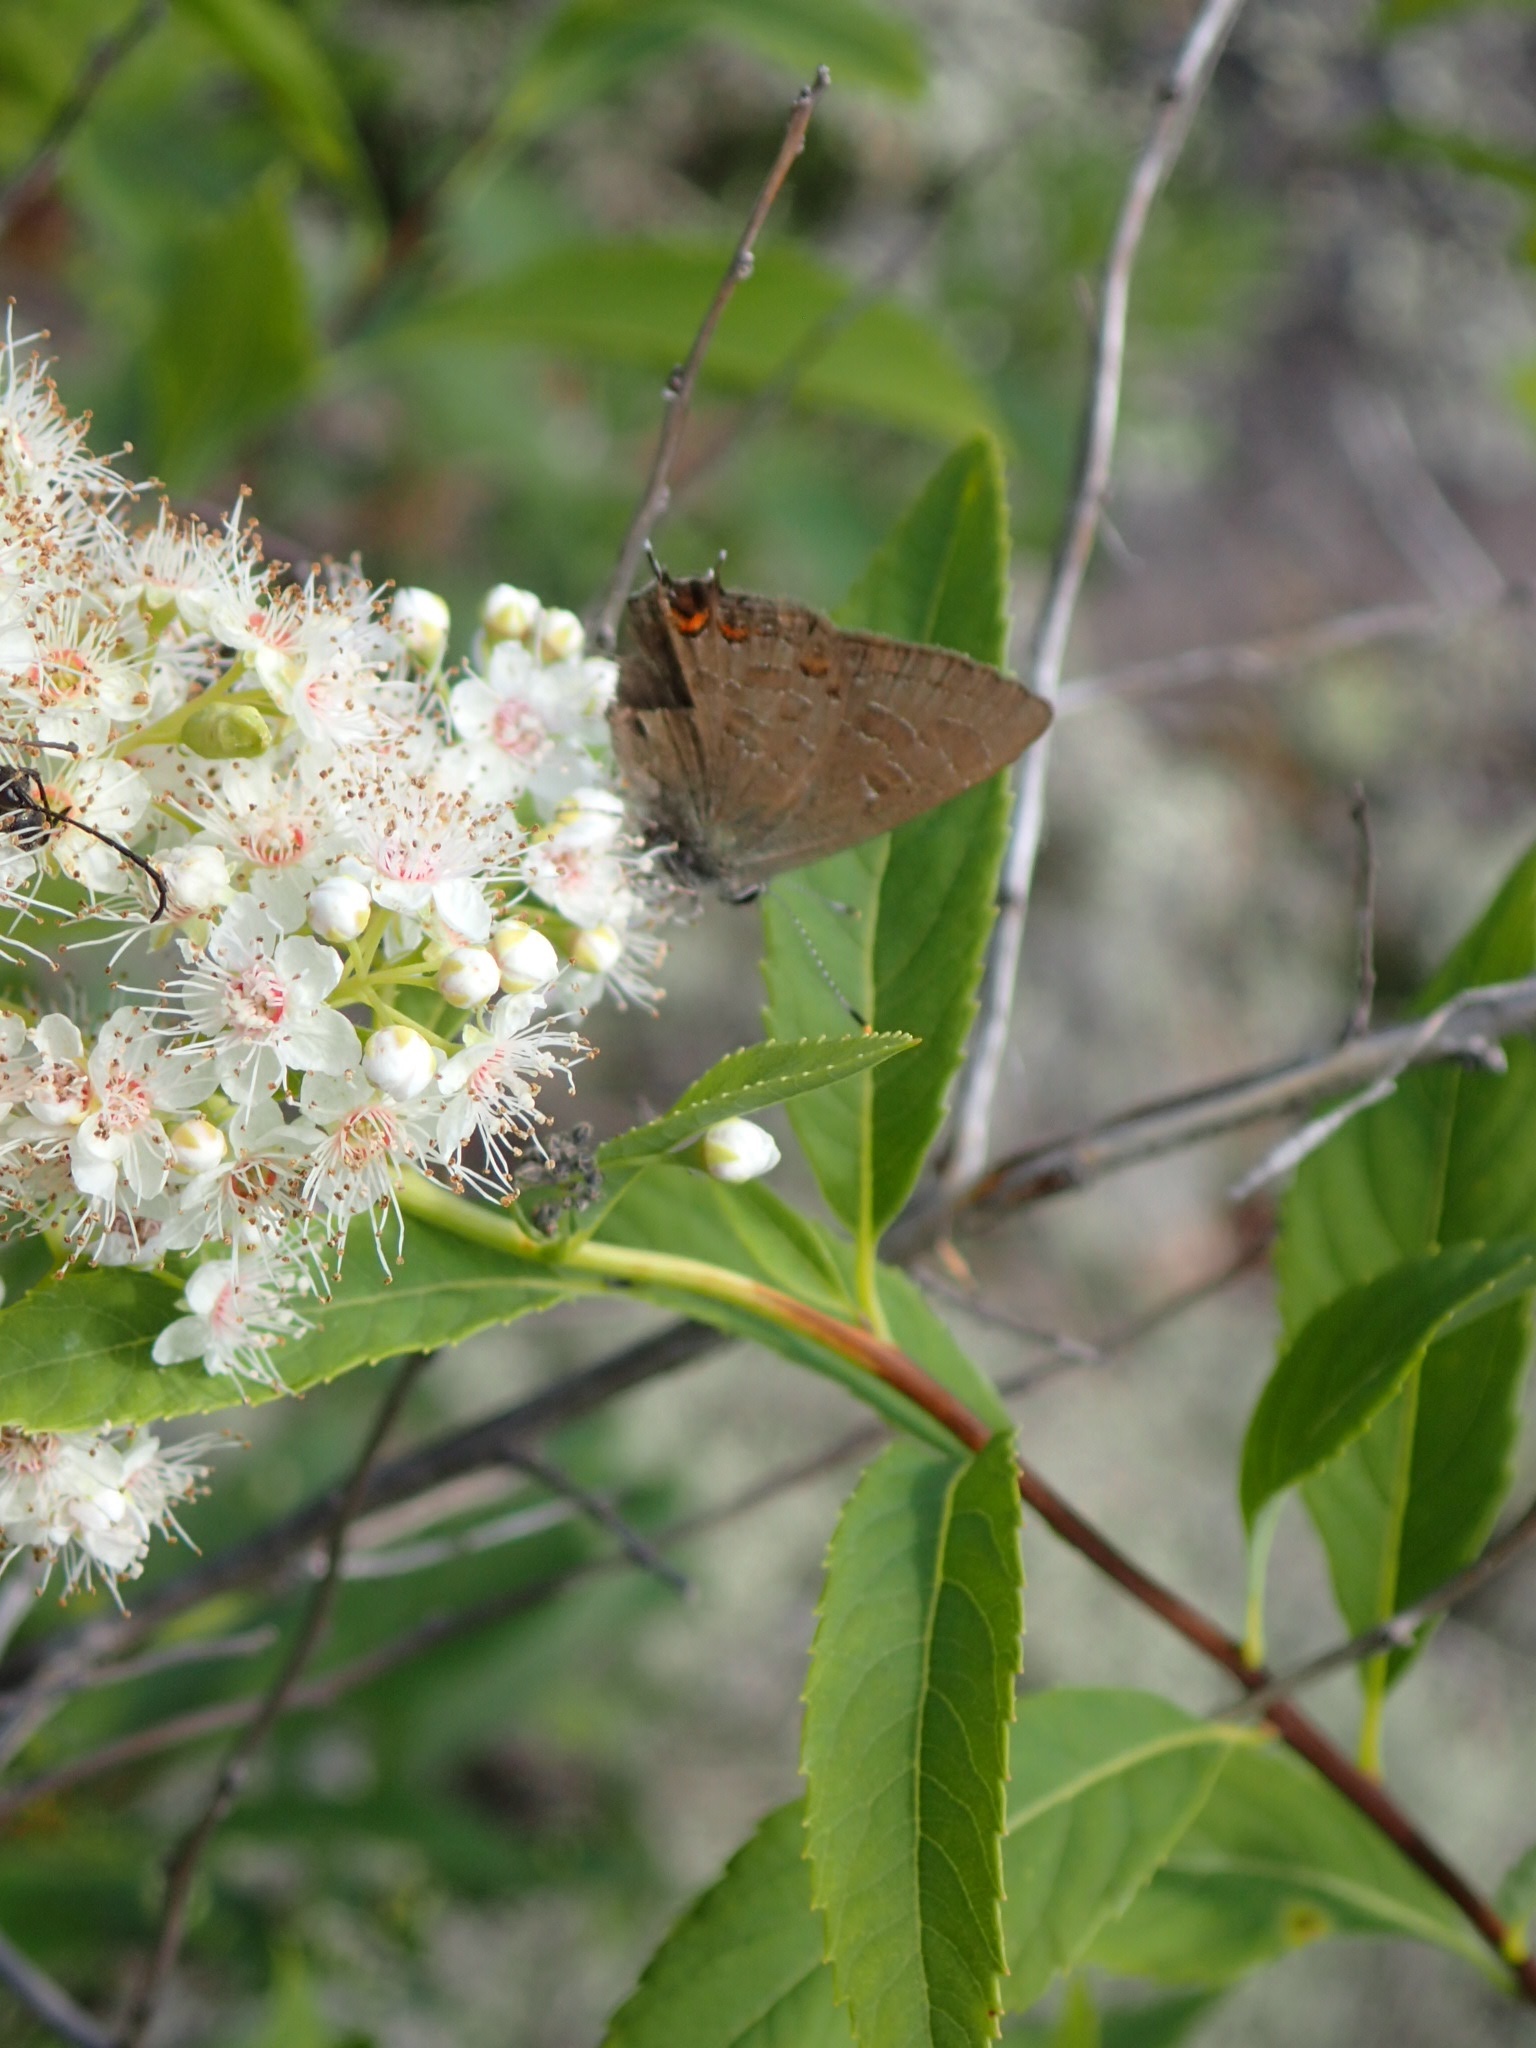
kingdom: Animalia
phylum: Arthropoda
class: Insecta
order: Lepidoptera
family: Lycaenidae
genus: Satyrium
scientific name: Satyrium liparops
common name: Striped hairstreak
